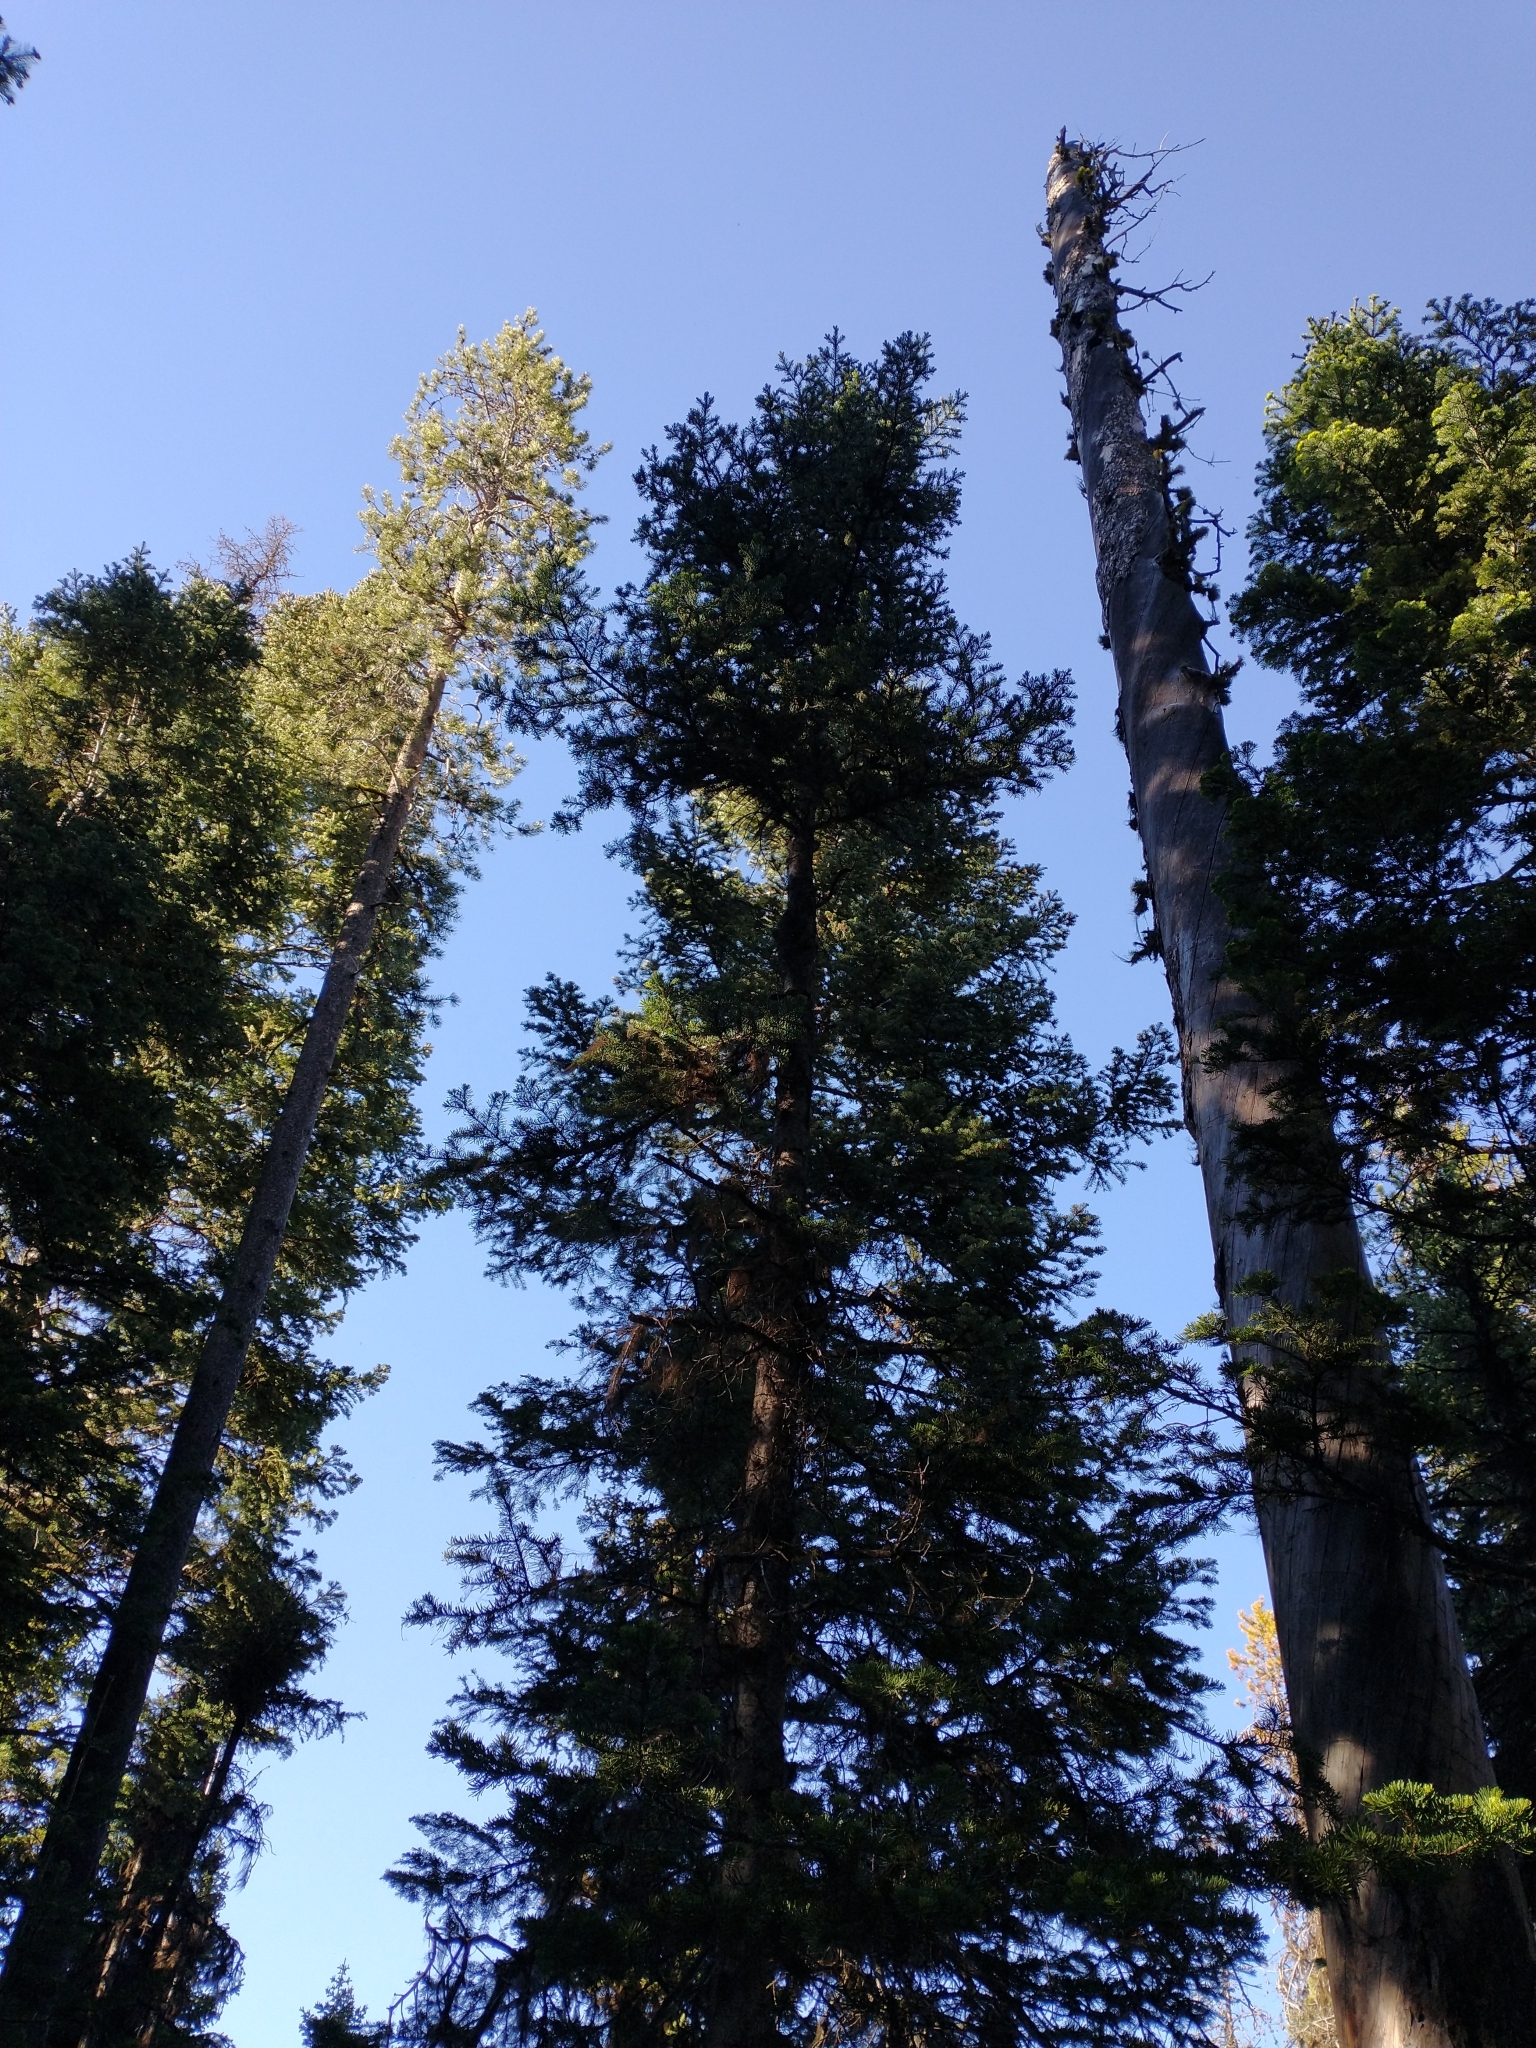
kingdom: Plantae
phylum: Tracheophyta
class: Pinopsida
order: Pinales
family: Pinaceae
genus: Abies
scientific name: Abies lasiocarpa
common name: Subalpine fir
